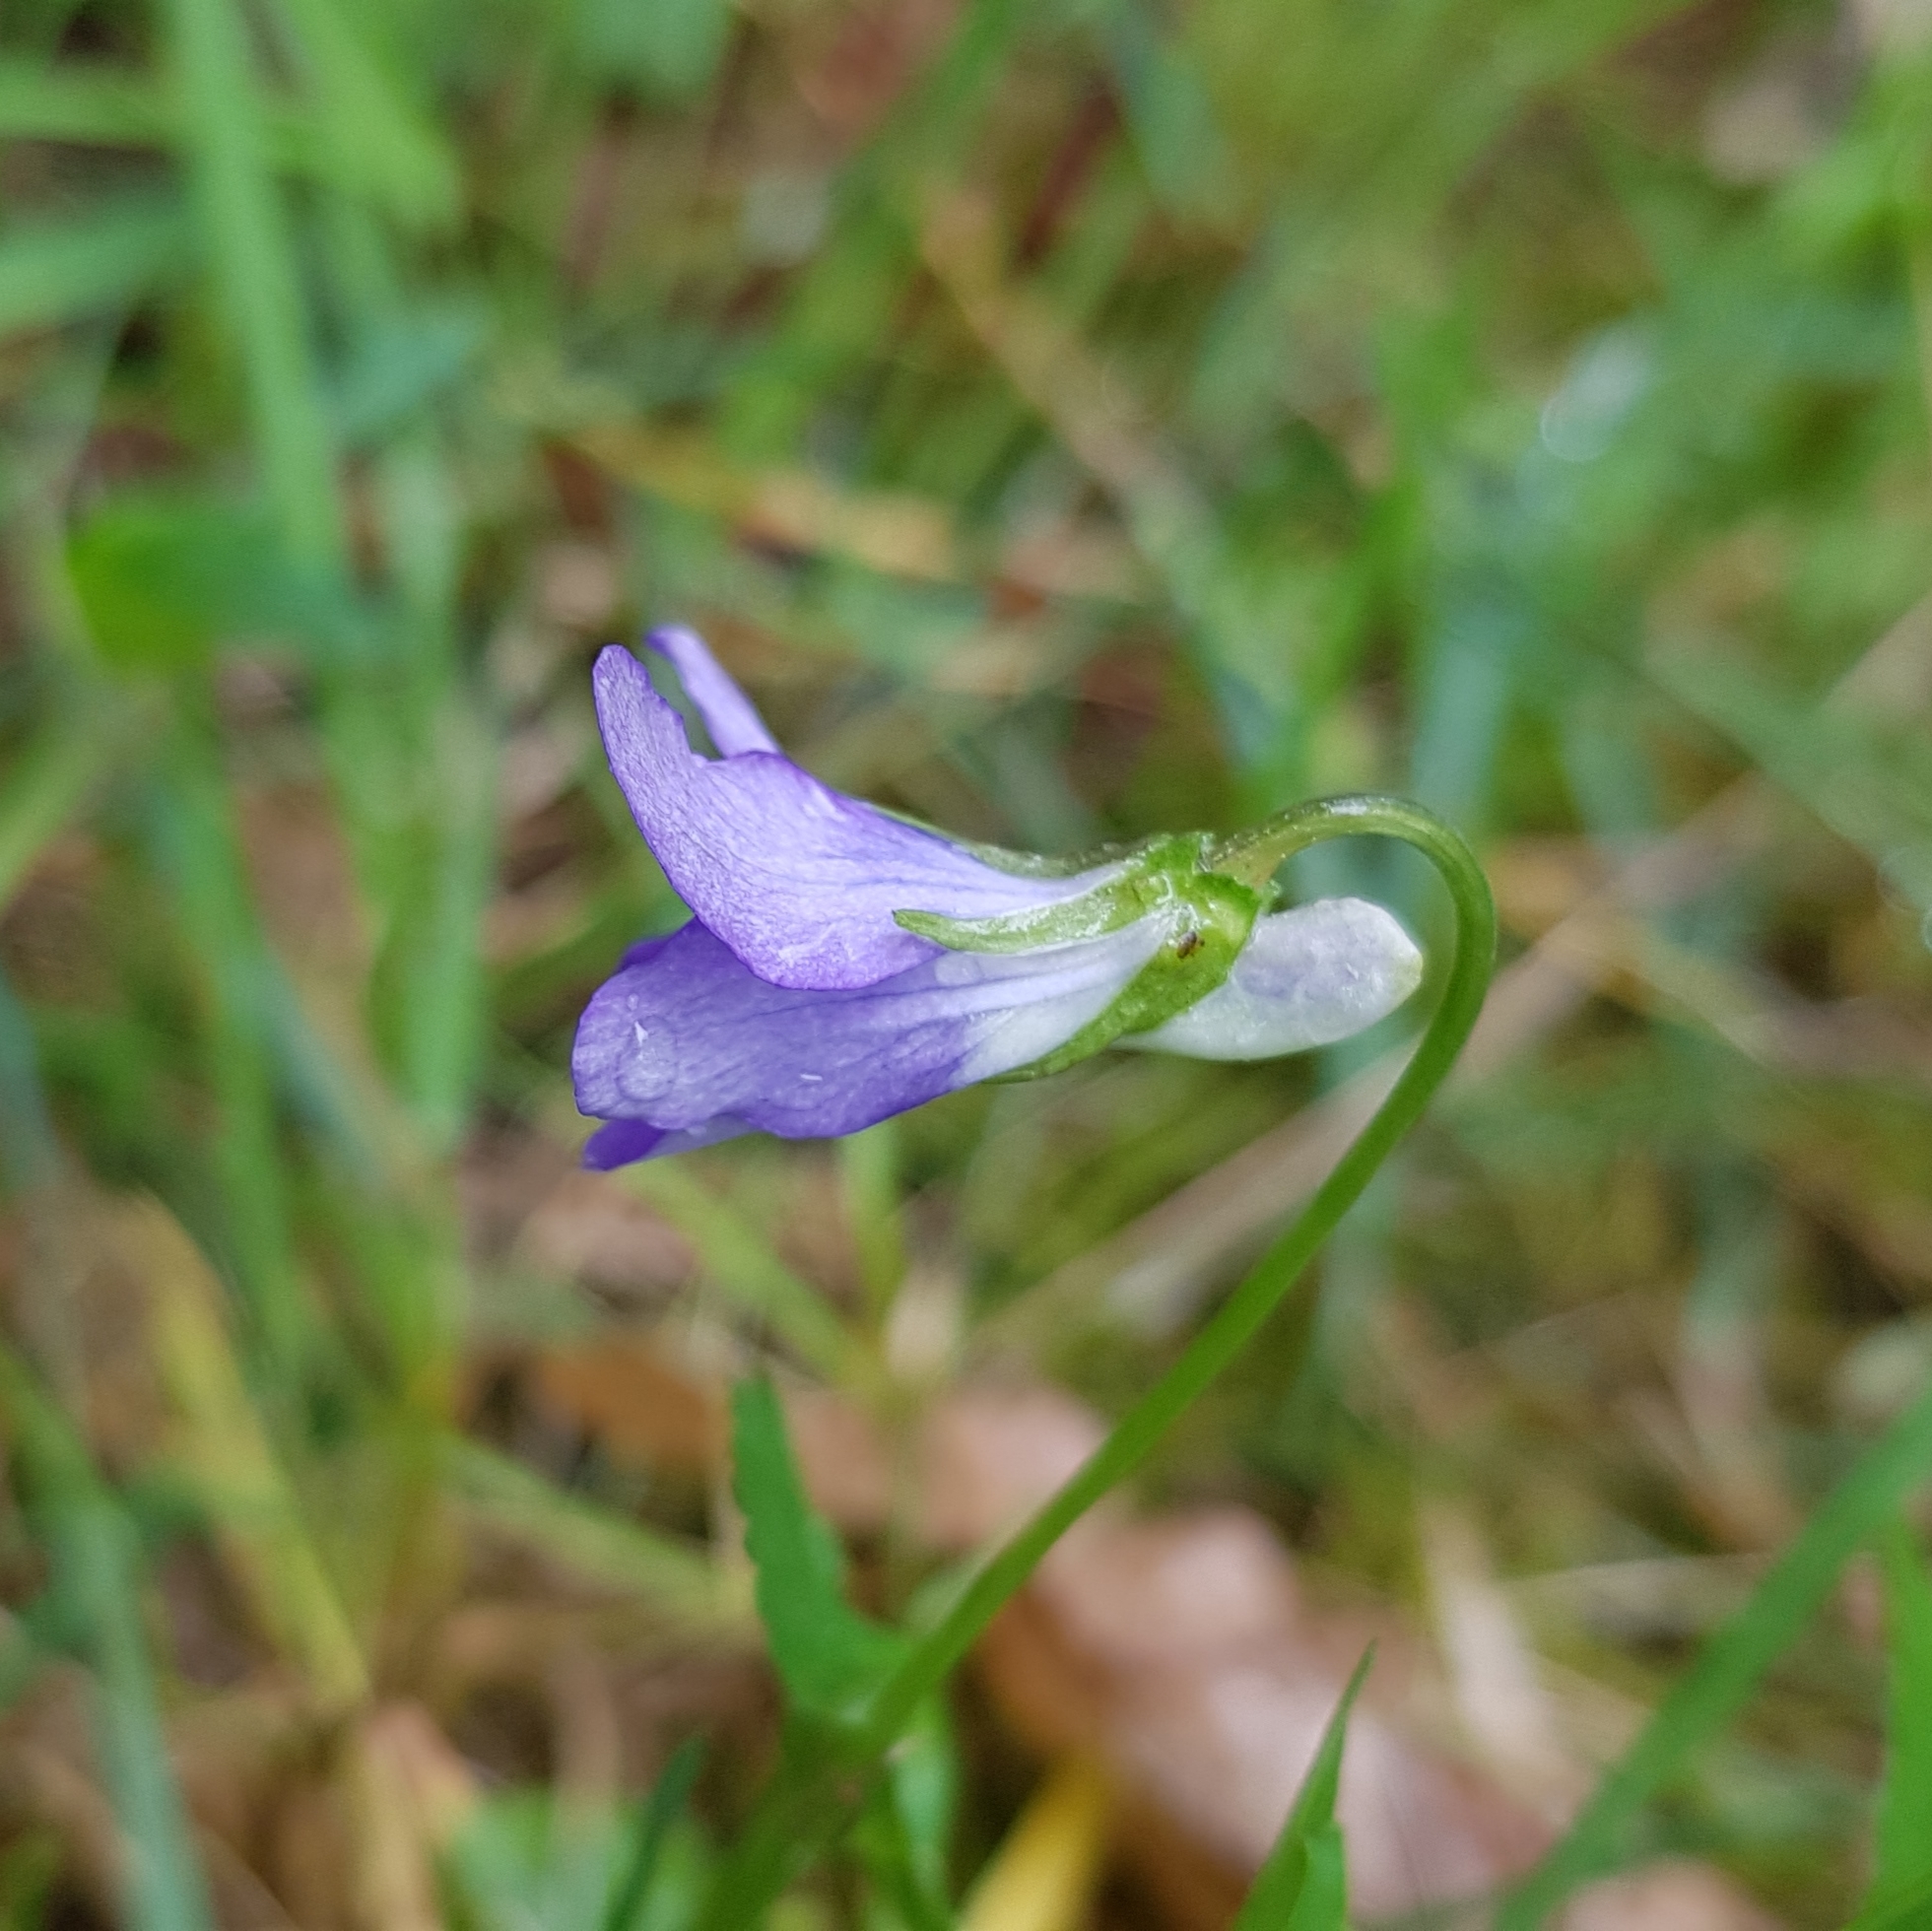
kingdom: Plantae
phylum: Tracheophyta
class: Magnoliopsida
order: Malpighiales
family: Violaceae
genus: Viola
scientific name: Viola riviniana
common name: Common dog-violet
